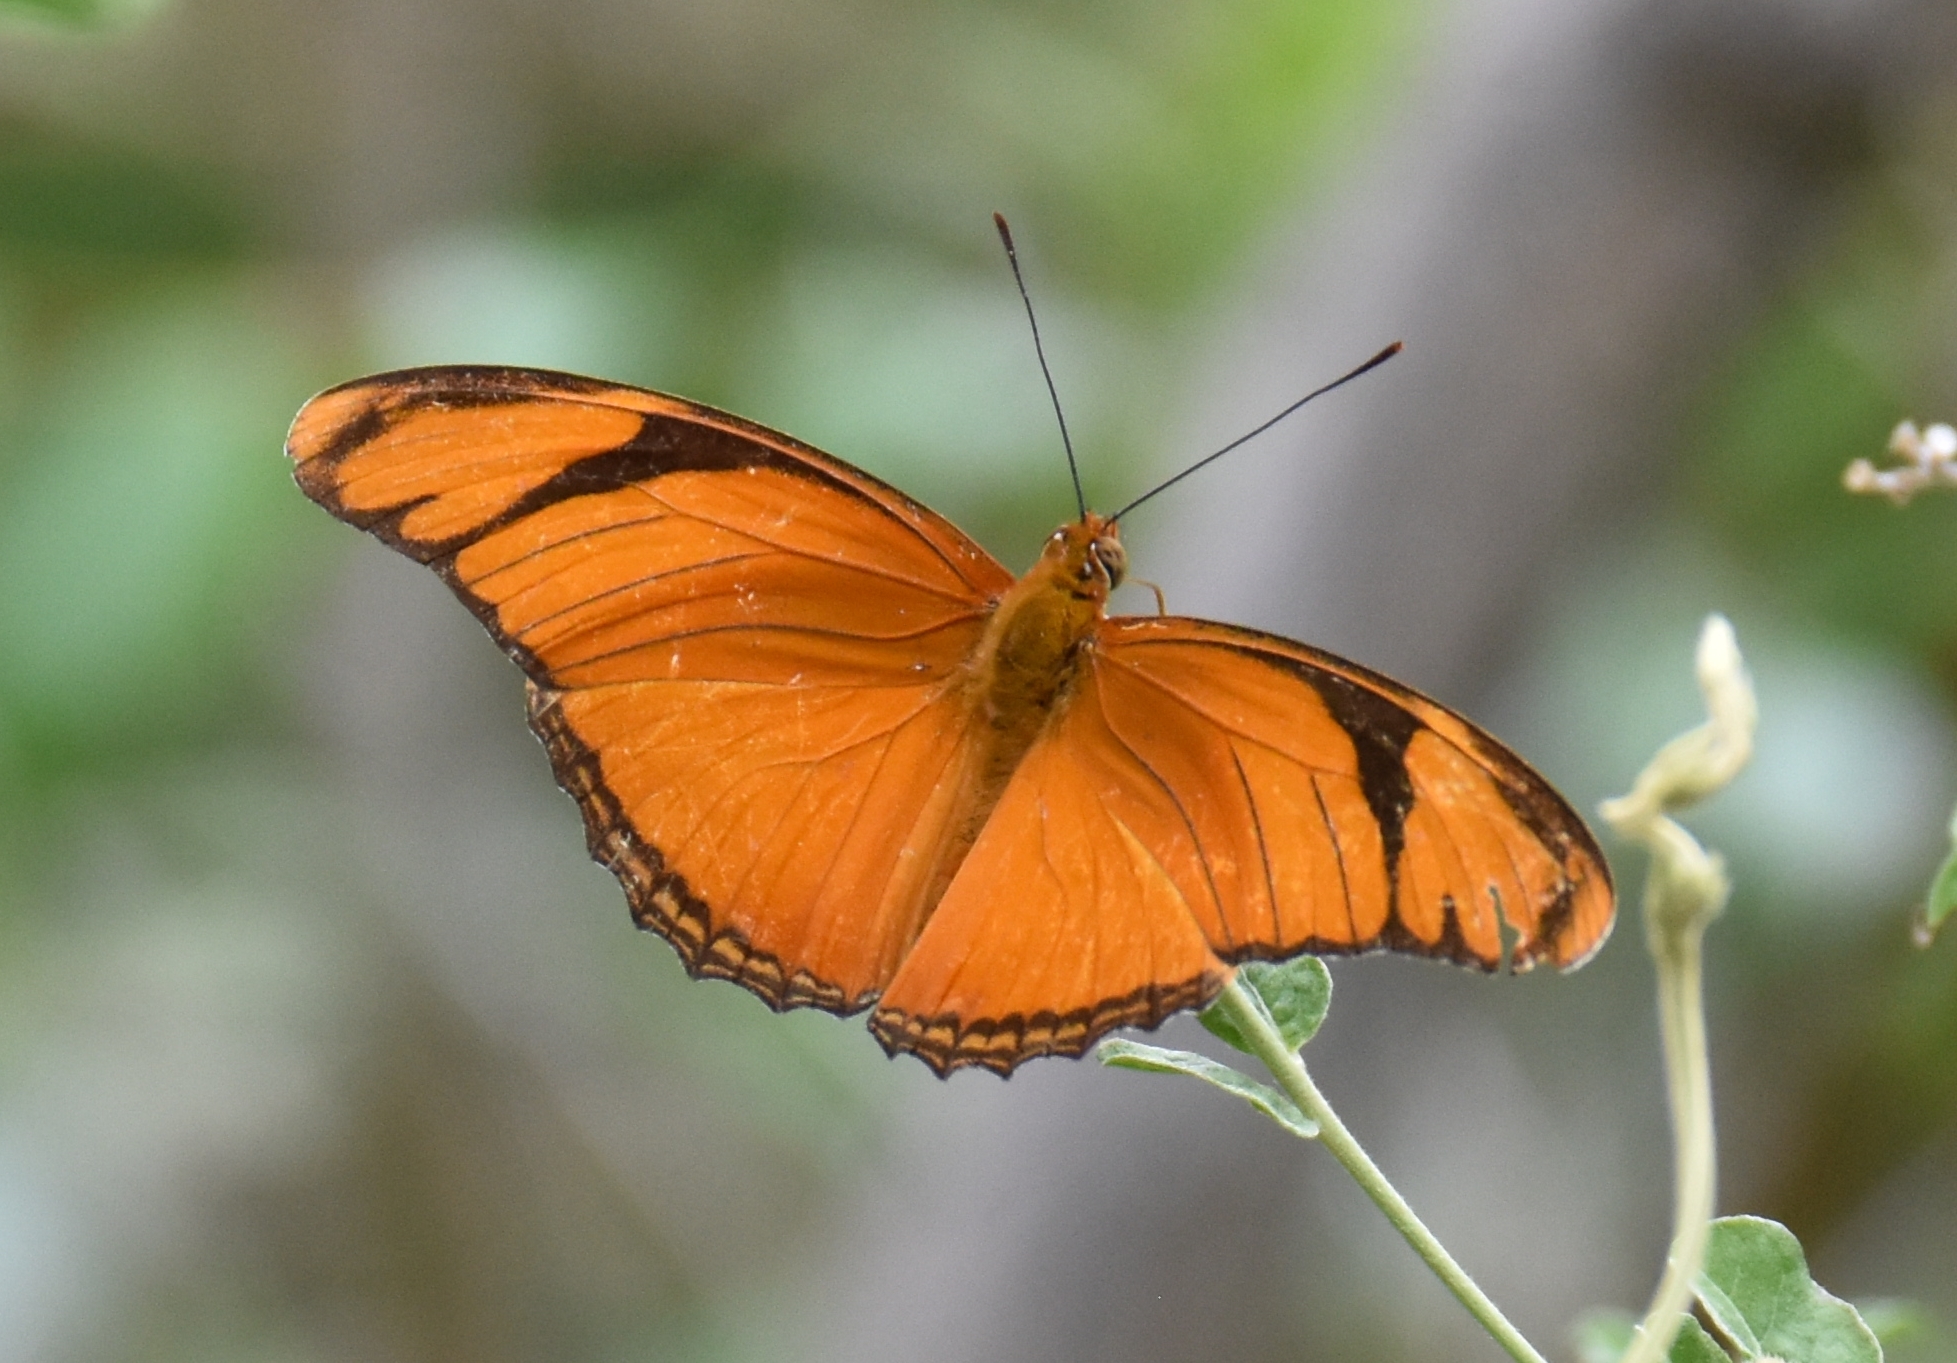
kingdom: Animalia
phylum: Arthropoda
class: Insecta
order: Lepidoptera
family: Nymphalidae
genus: Dryas
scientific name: Dryas iulia
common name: Flambeau
